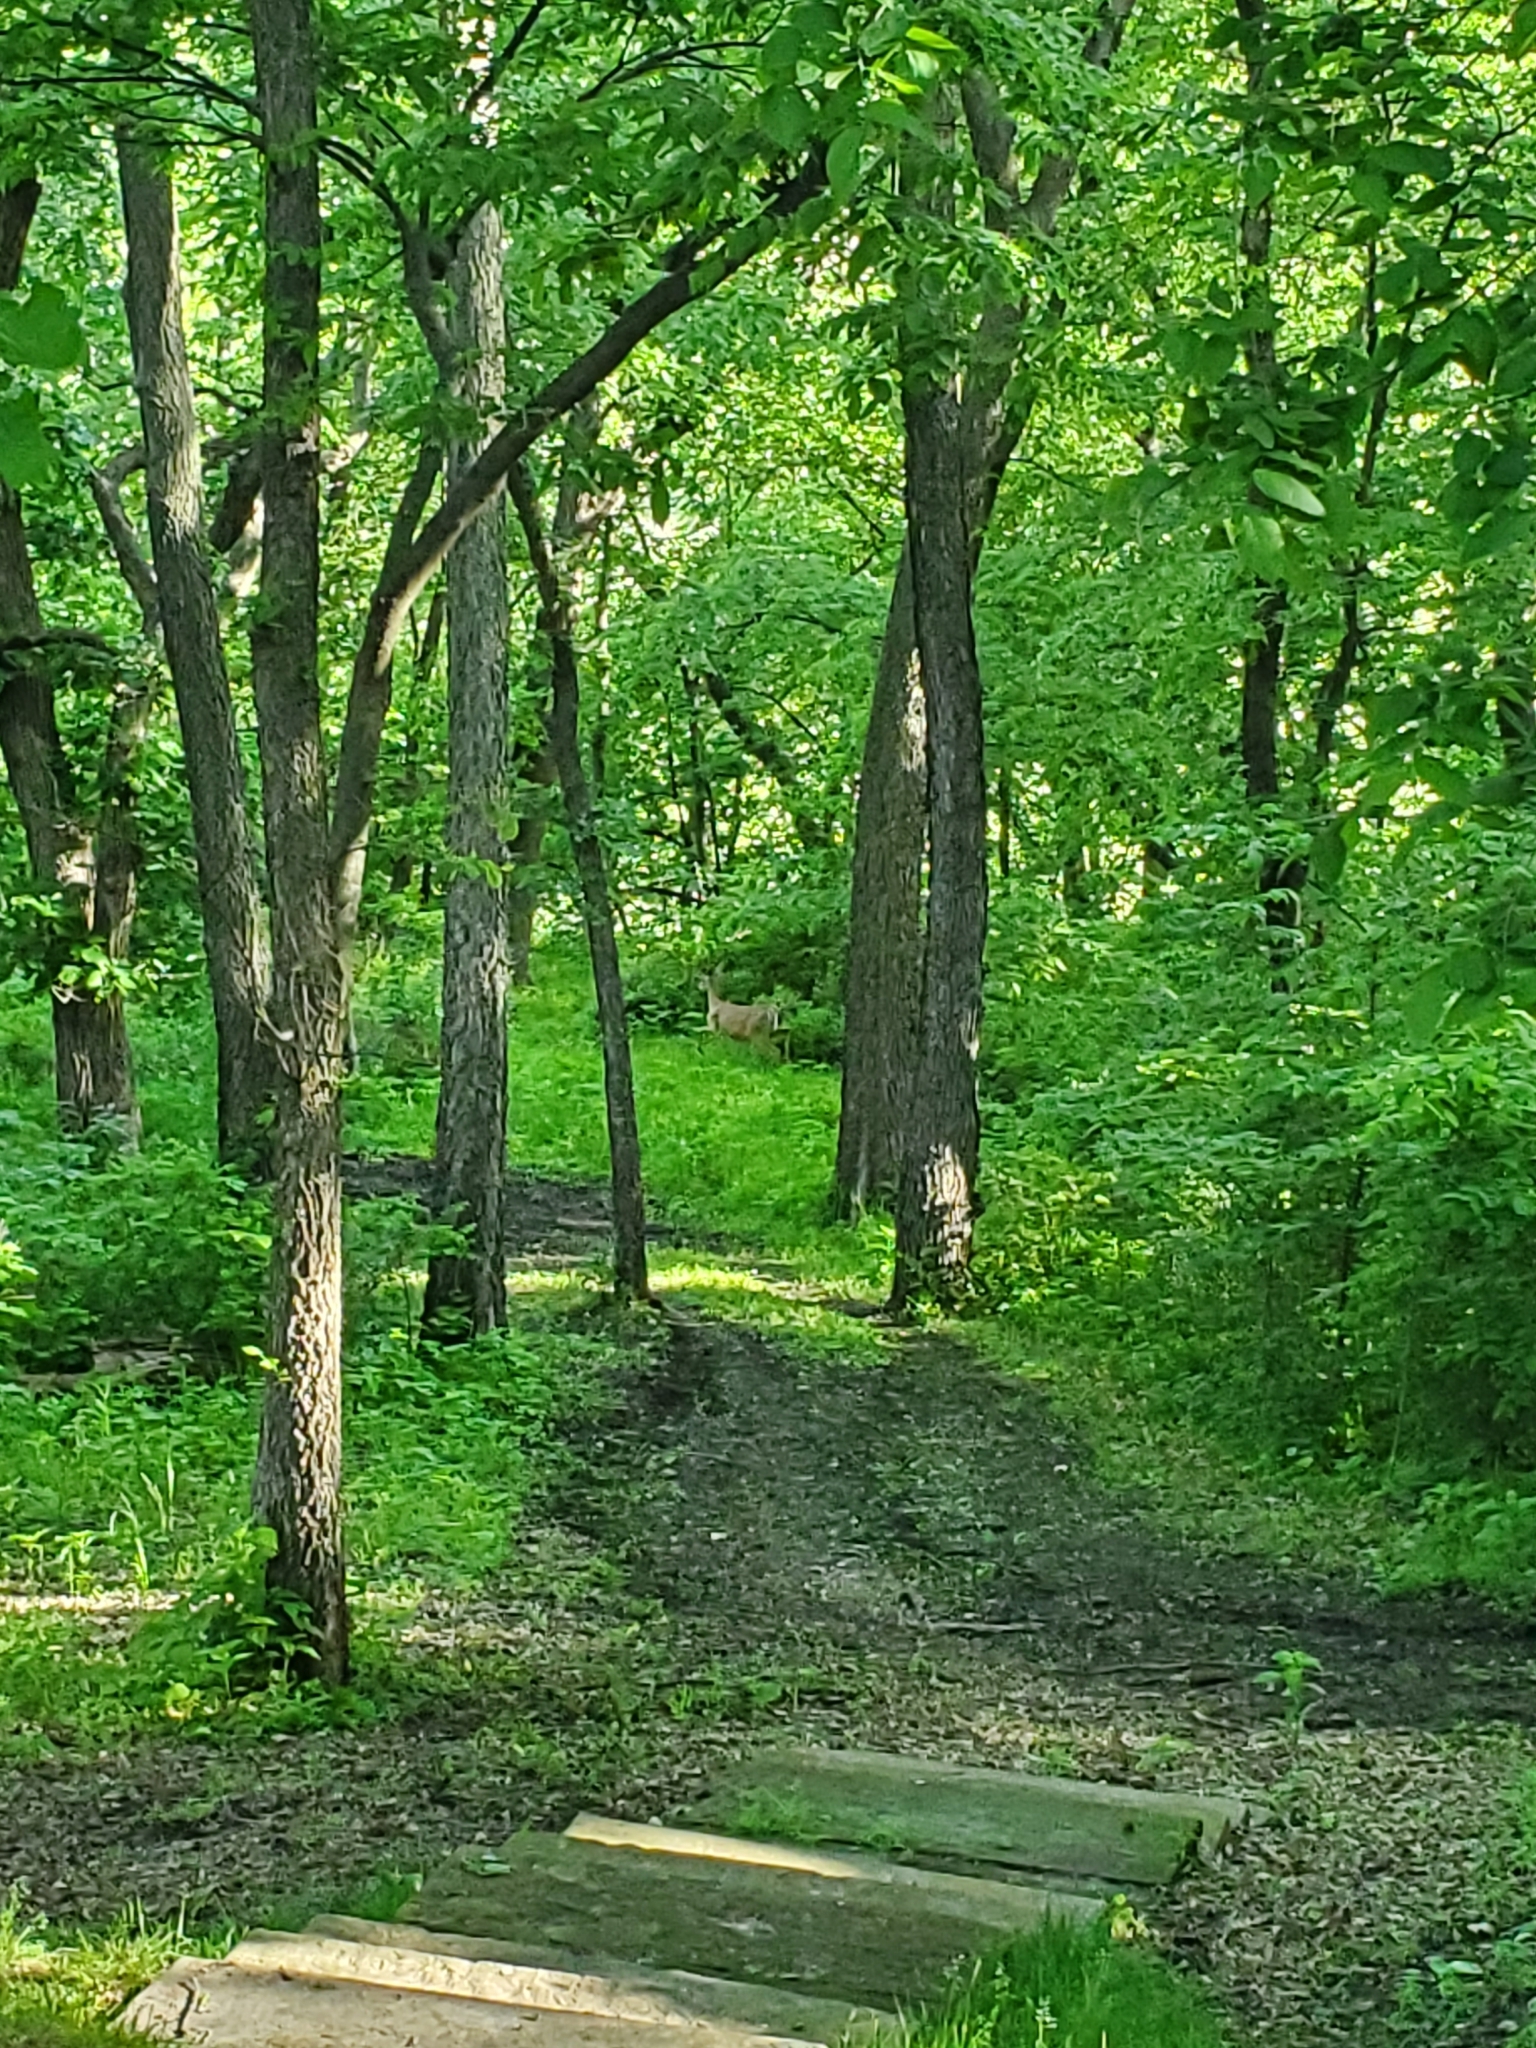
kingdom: Animalia
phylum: Chordata
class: Mammalia
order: Artiodactyla
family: Cervidae
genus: Odocoileus
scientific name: Odocoileus virginianus
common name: White-tailed deer
